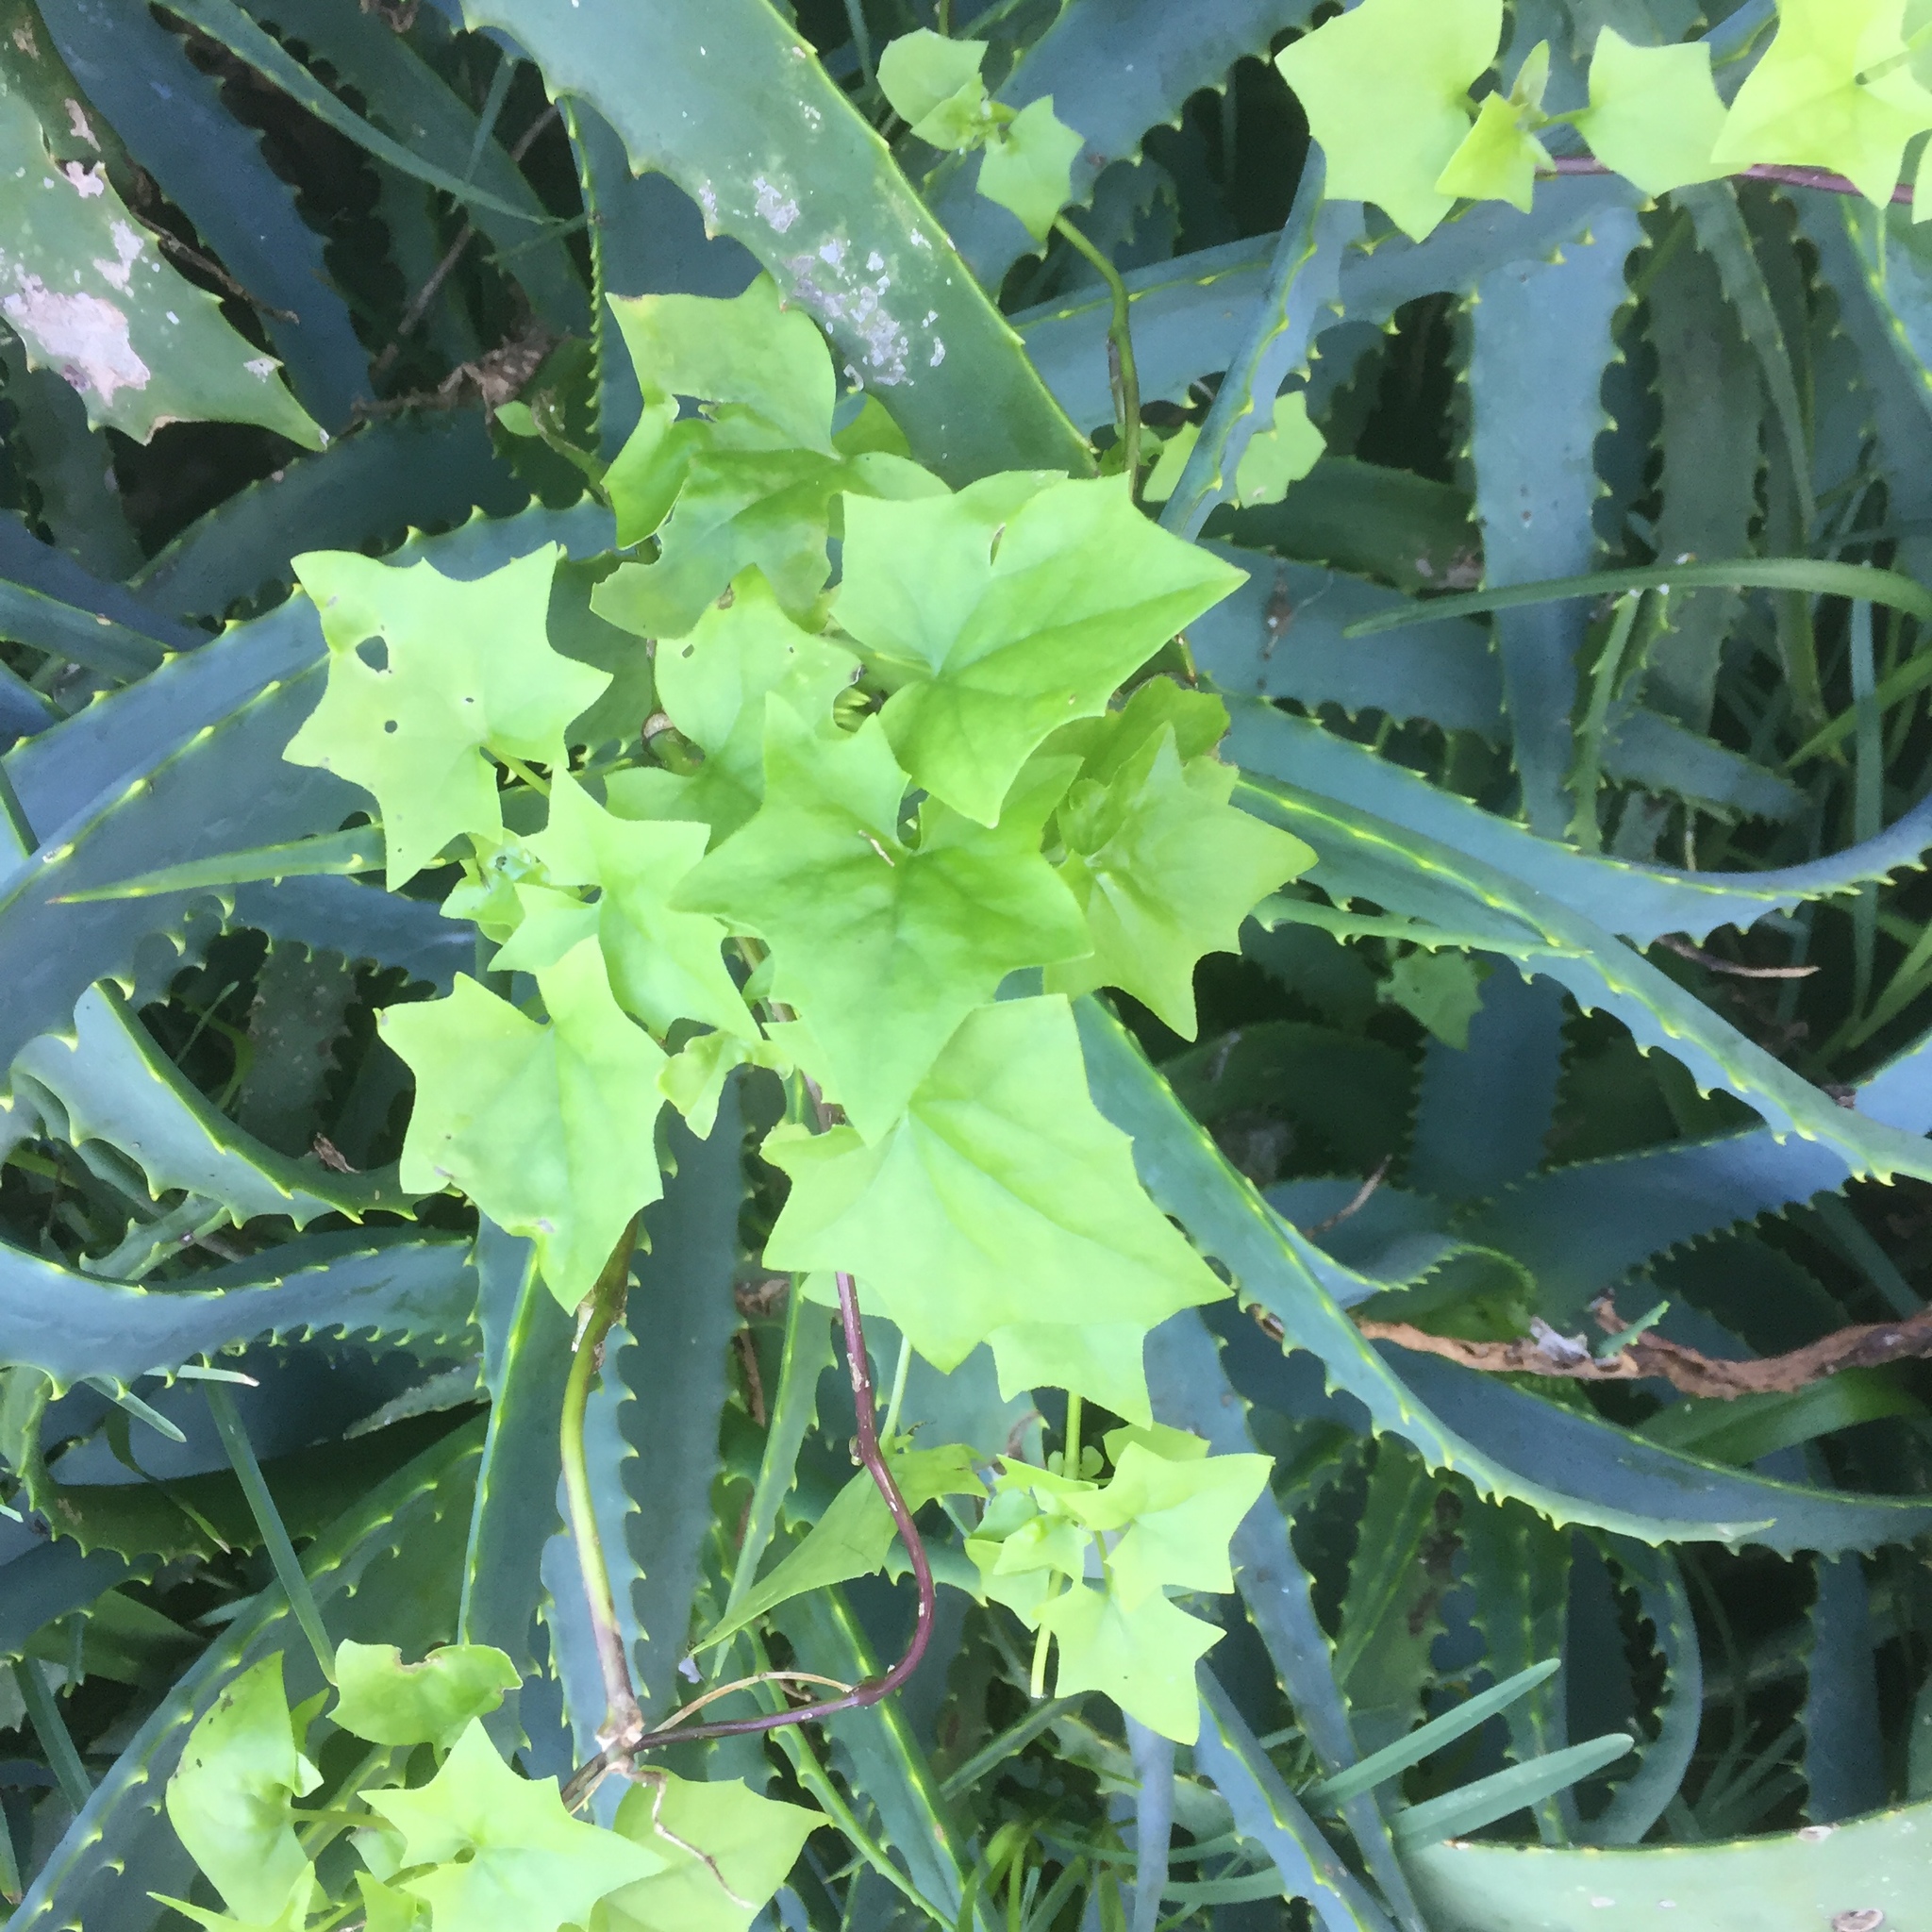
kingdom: Plantae
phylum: Tracheophyta
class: Magnoliopsida
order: Asterales
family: Asteraceae
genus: Delairea
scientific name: Delairea odorata
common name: Cape-ivy
